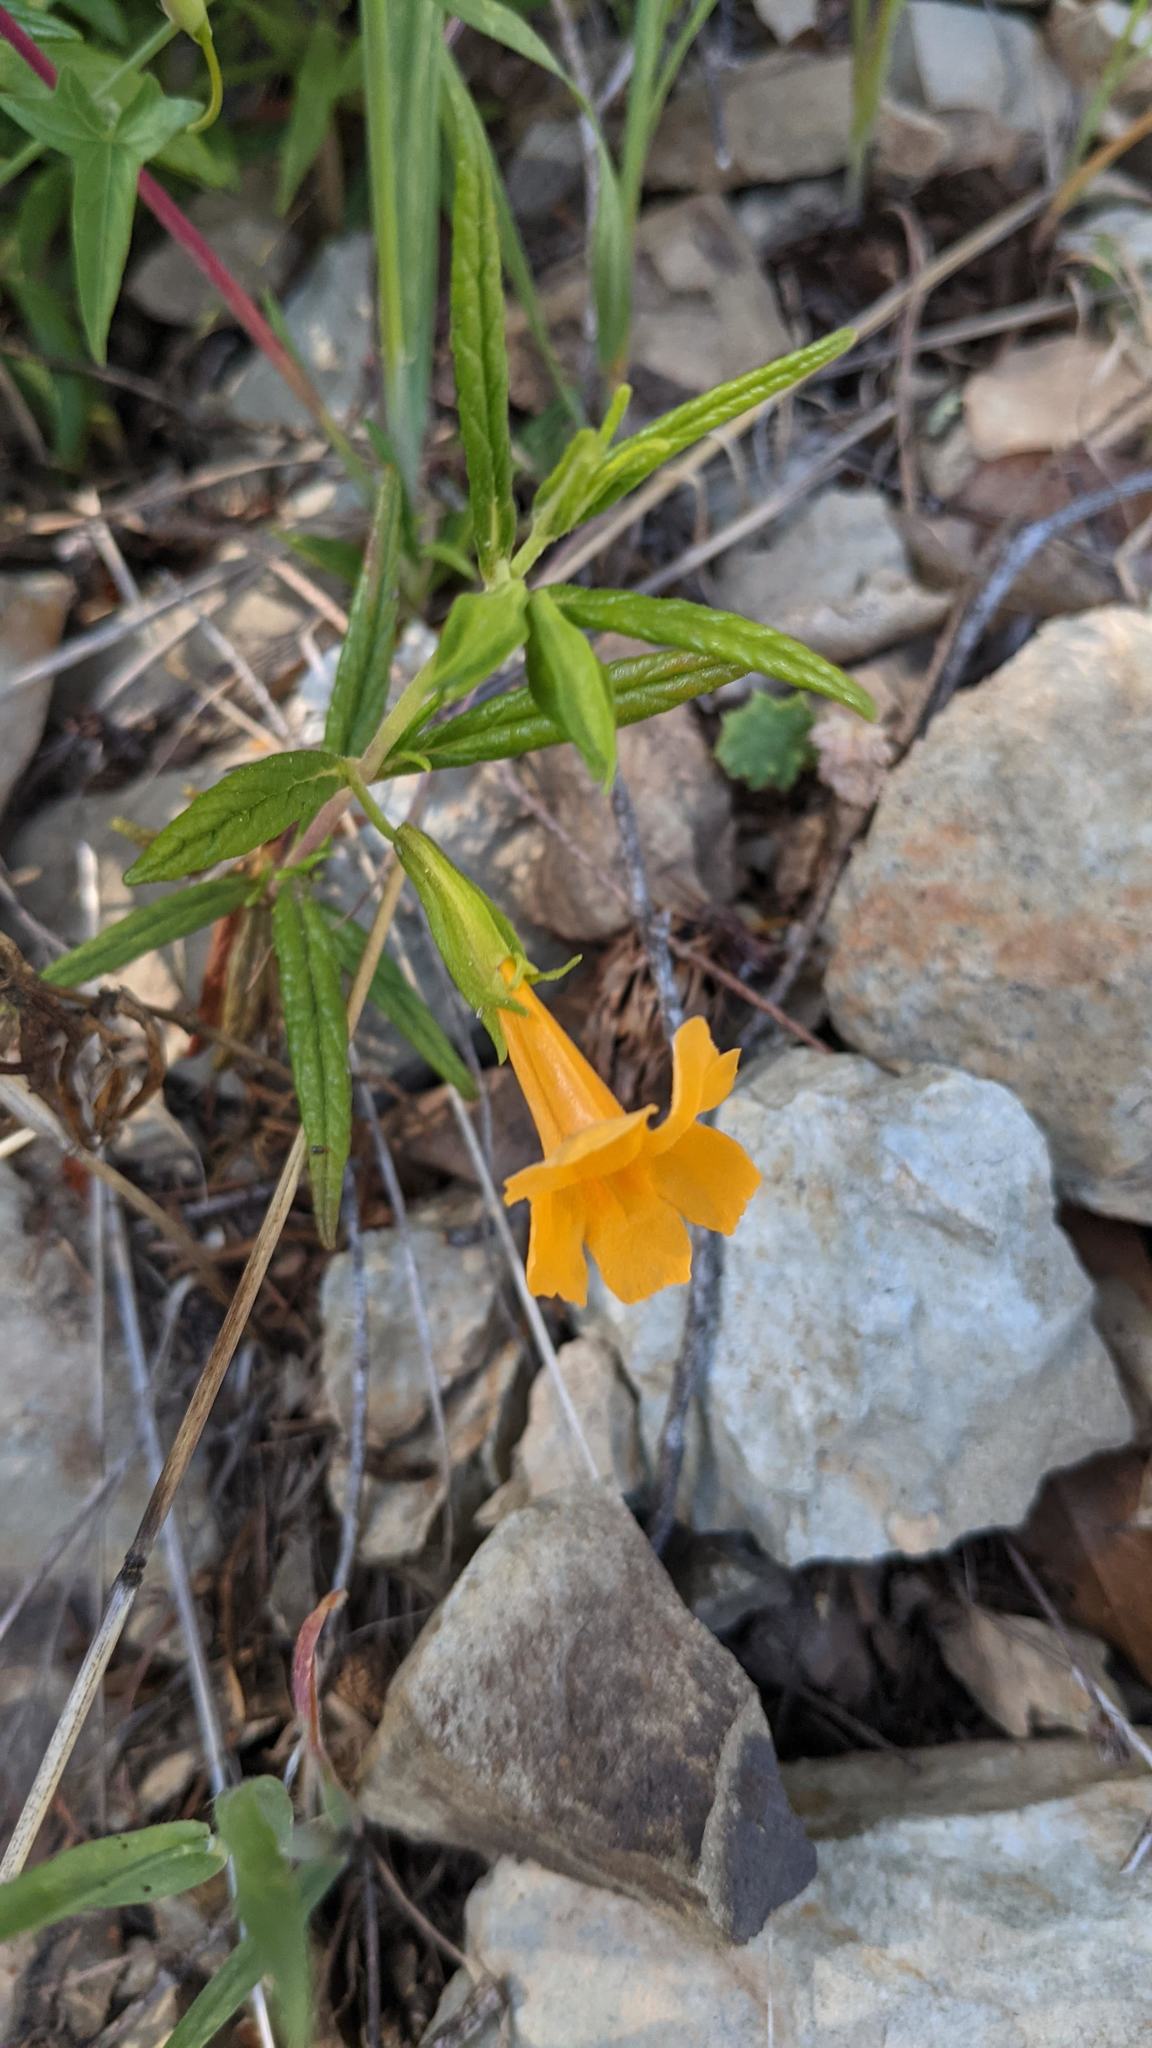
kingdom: Plantae
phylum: Tracheophyta
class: Magnoliopsida
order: Lamiales
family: Phrymaceae
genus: Diplacus
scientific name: Diplacus aurantiacus
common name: Bush monkey-flower
